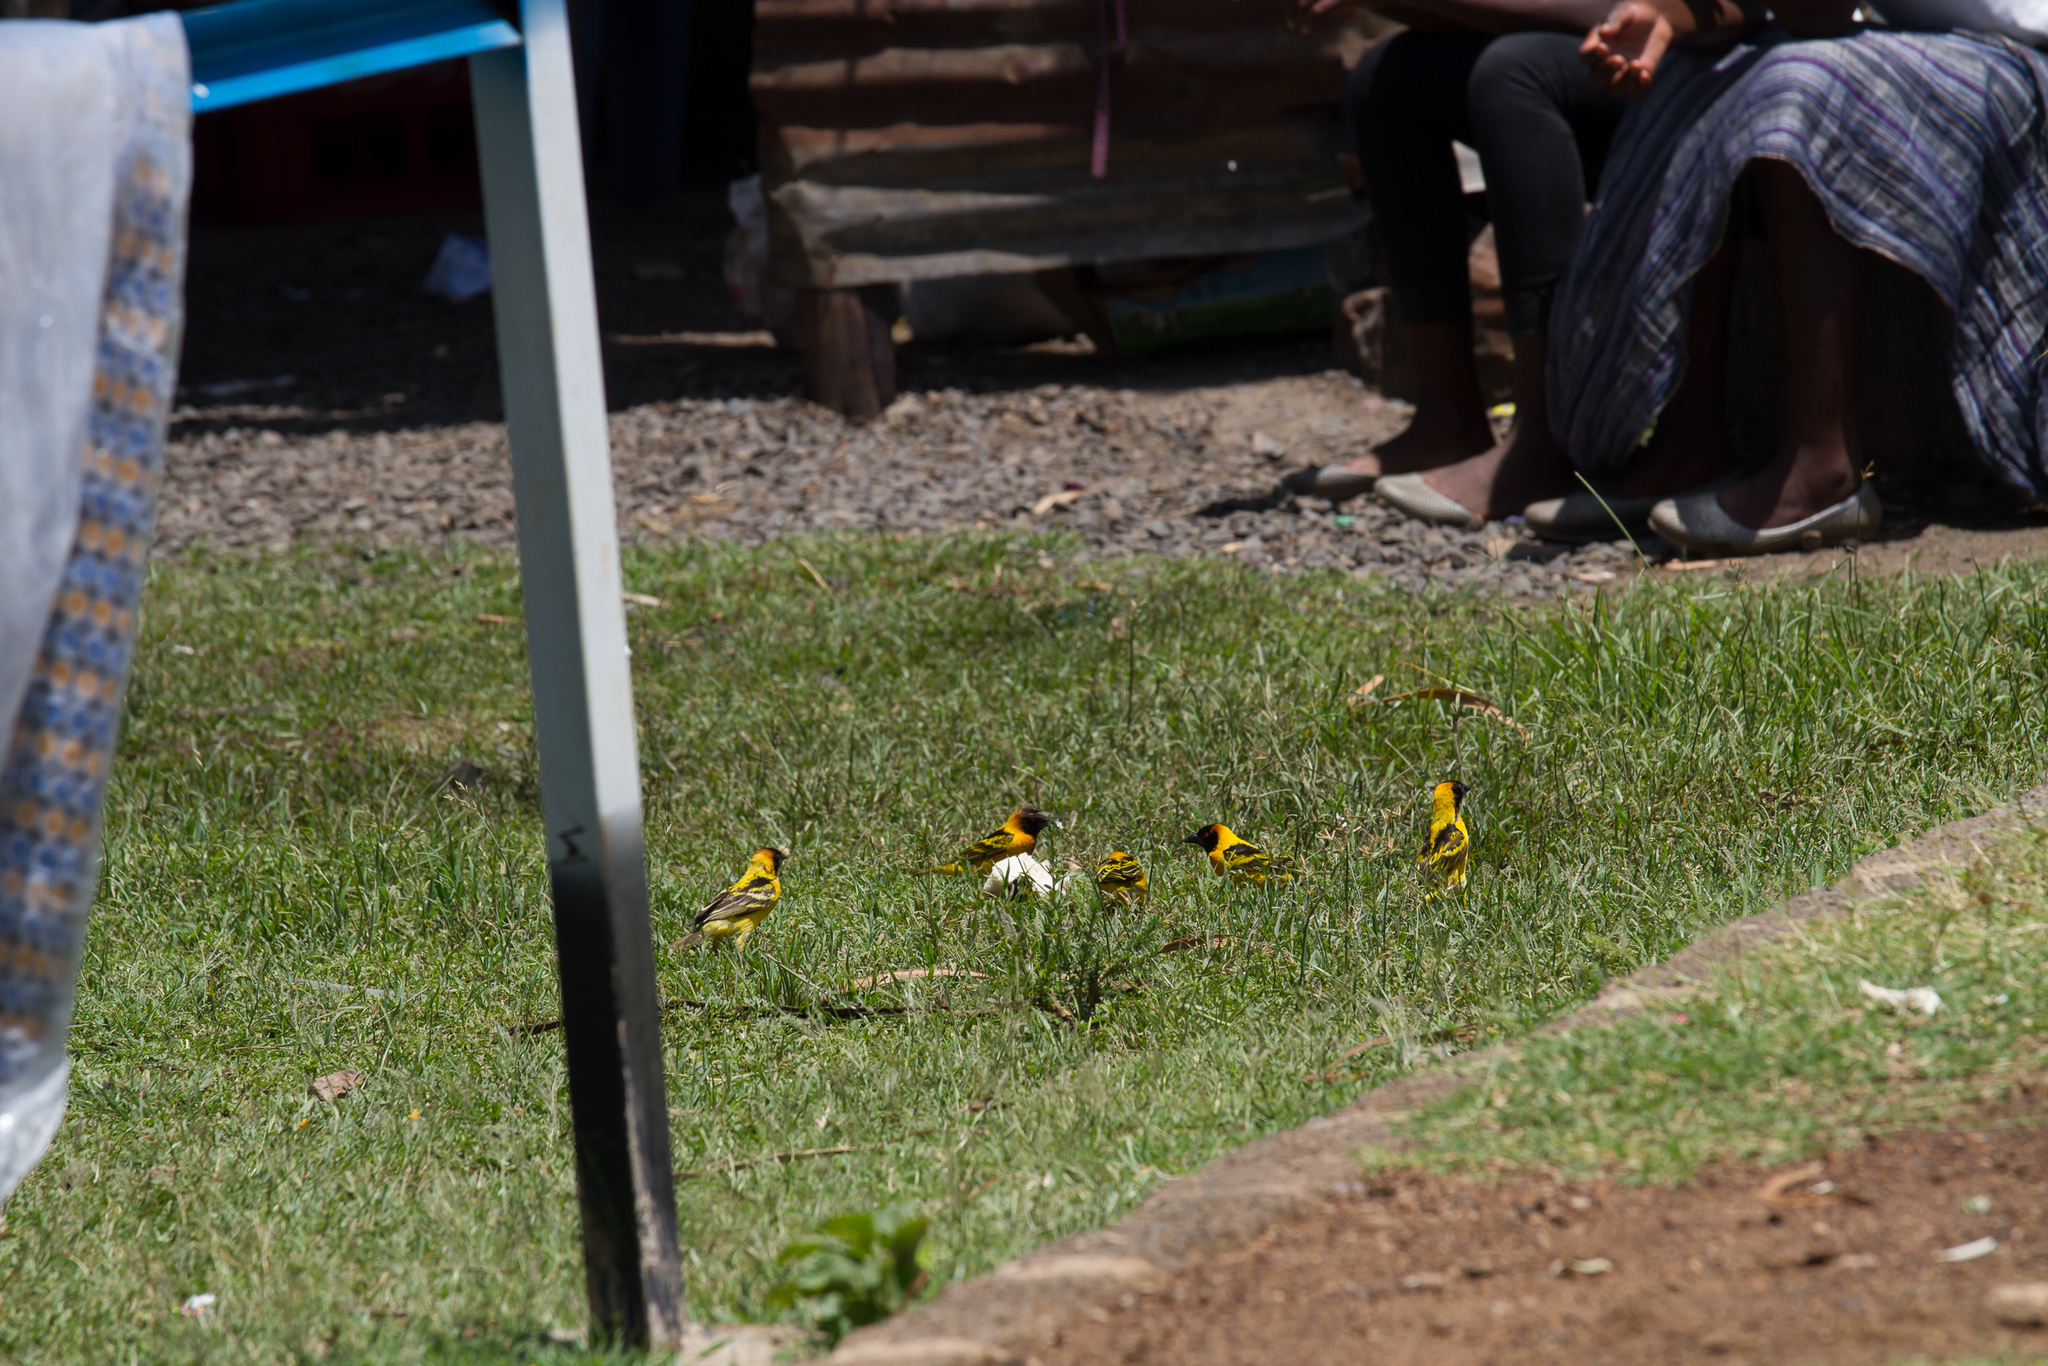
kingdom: Animalia
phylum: Chordata
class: Aves
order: Passeriformes
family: Ploceidae
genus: Ploceus
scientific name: Ploceus cucullatus
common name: Village weaver
